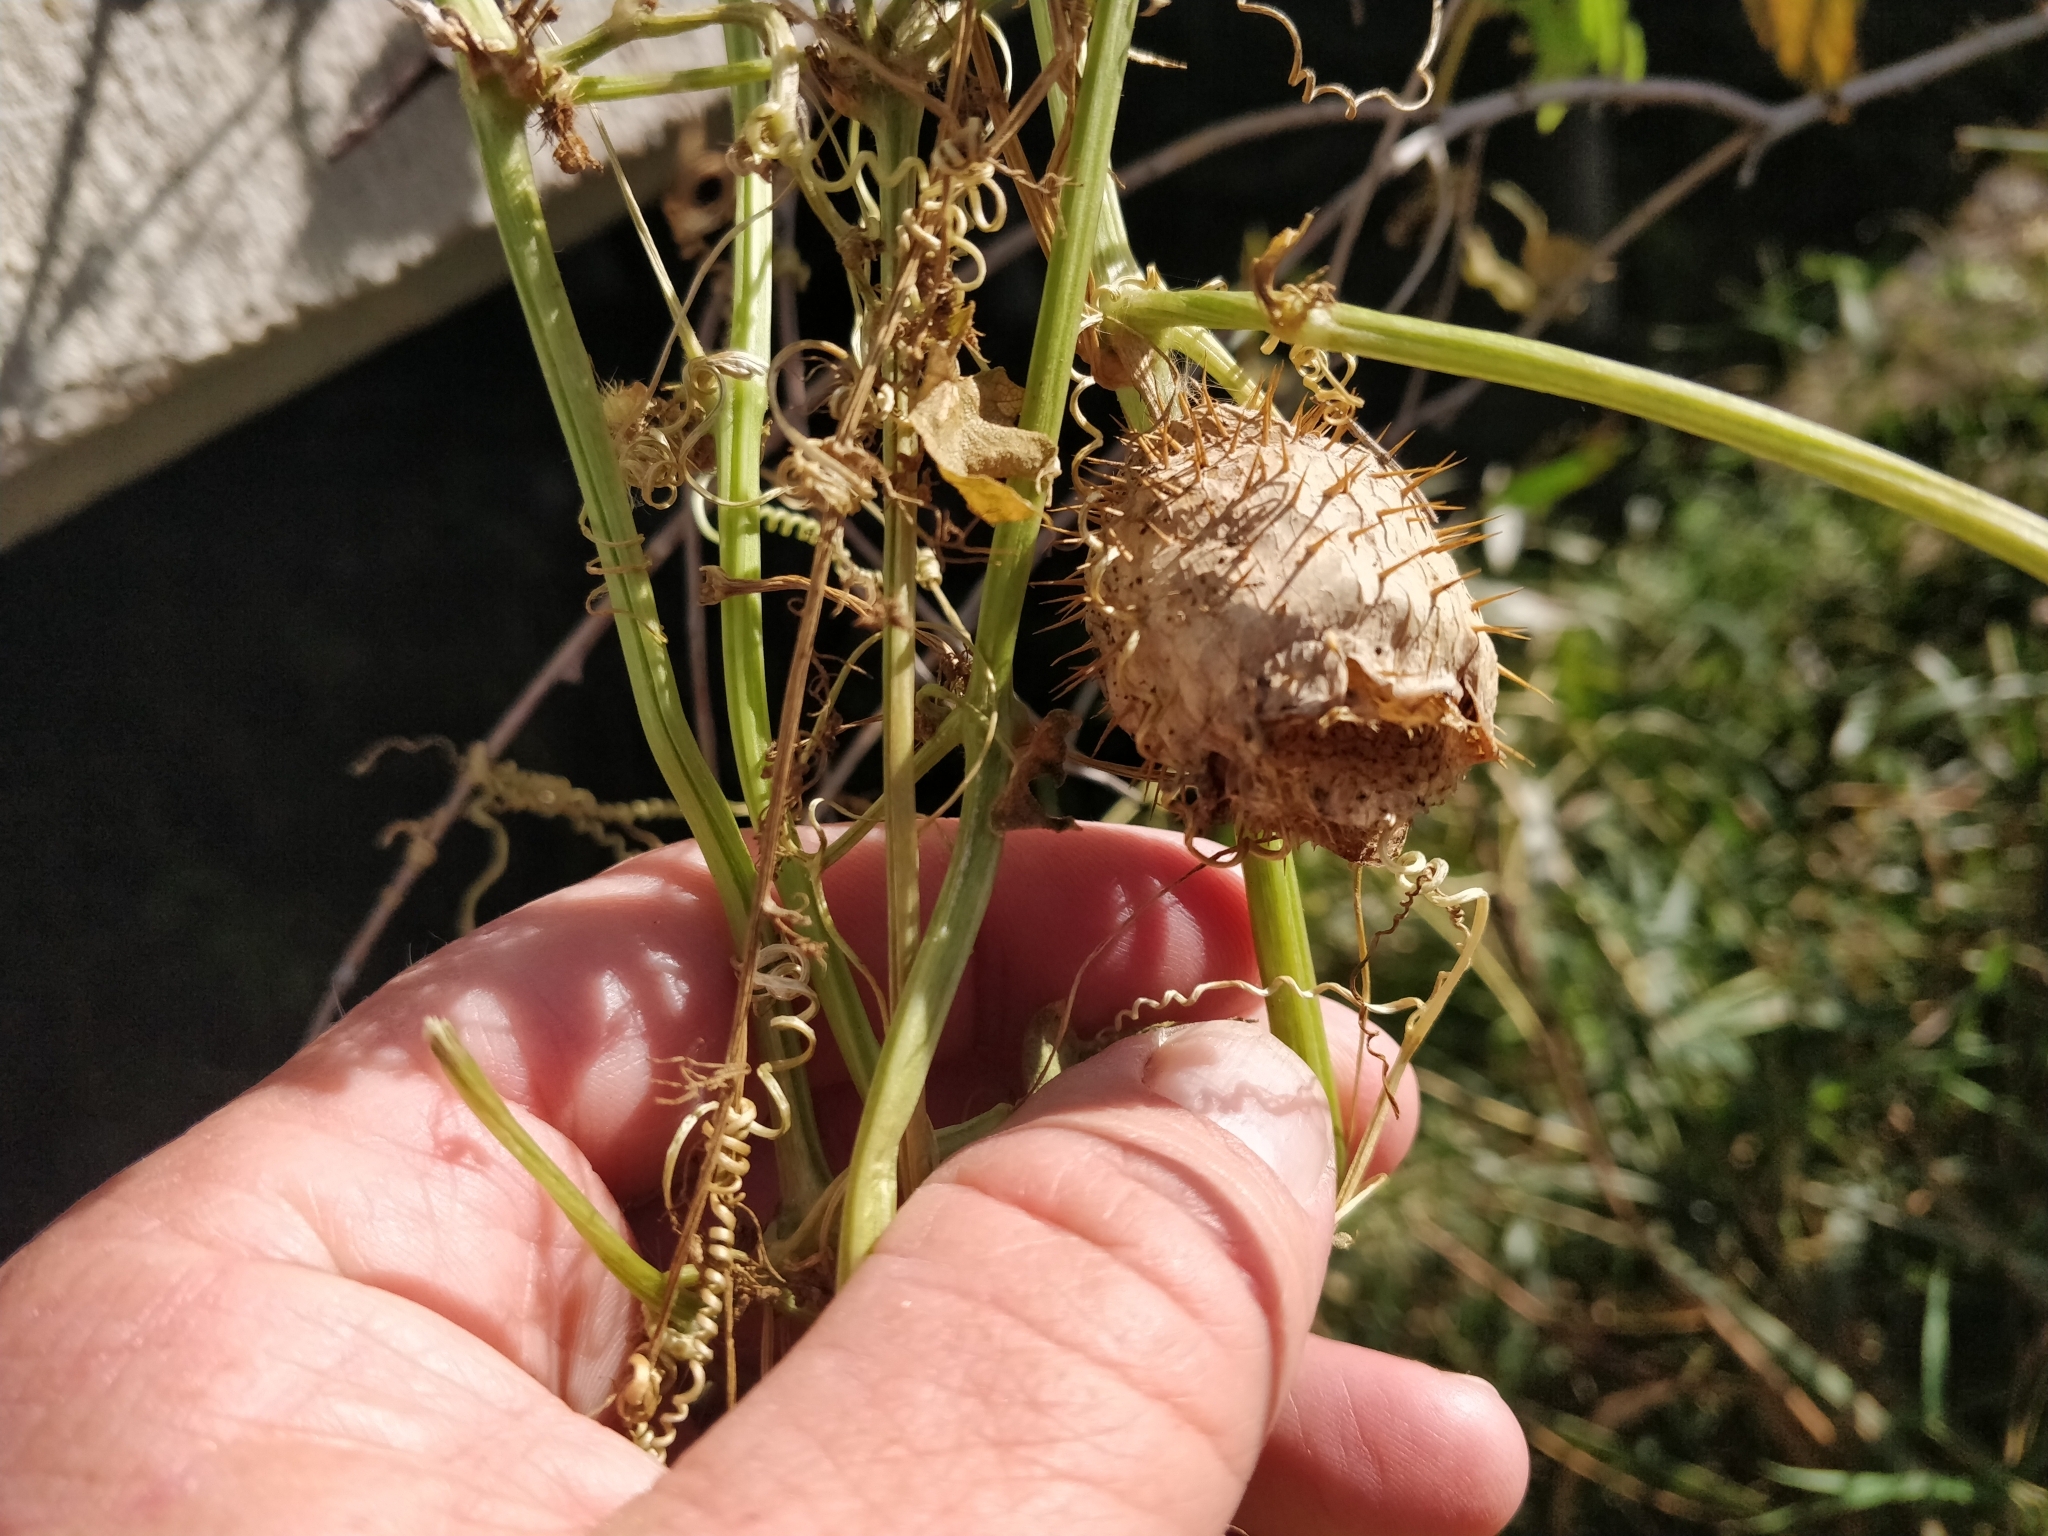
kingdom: Plantae
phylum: Tracheophyta
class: Magnoliopsida
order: Cucurbitales
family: Cucurbitaceae
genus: Echinocystis
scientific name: Echinocystis lobata
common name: Wild cucumber
